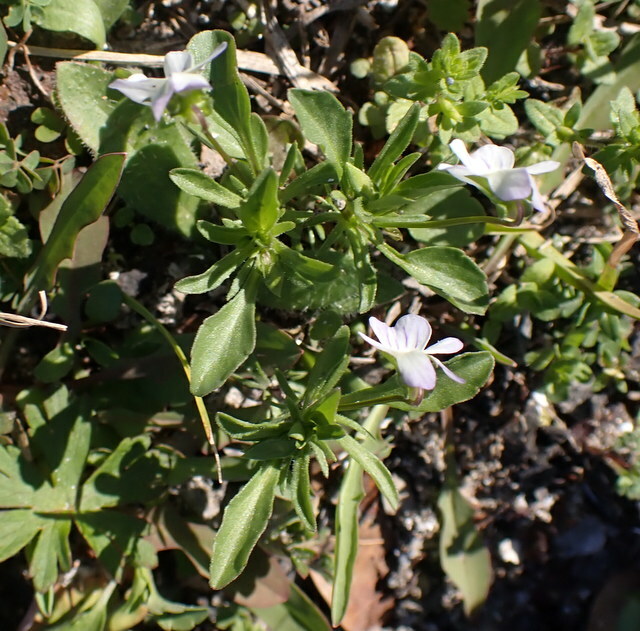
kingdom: Plantae
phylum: Tracheophyta
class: Magnoliopsida
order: Malpighiales
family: Violaceae
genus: Viola
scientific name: Viola rafinesquei
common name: American field pansy
